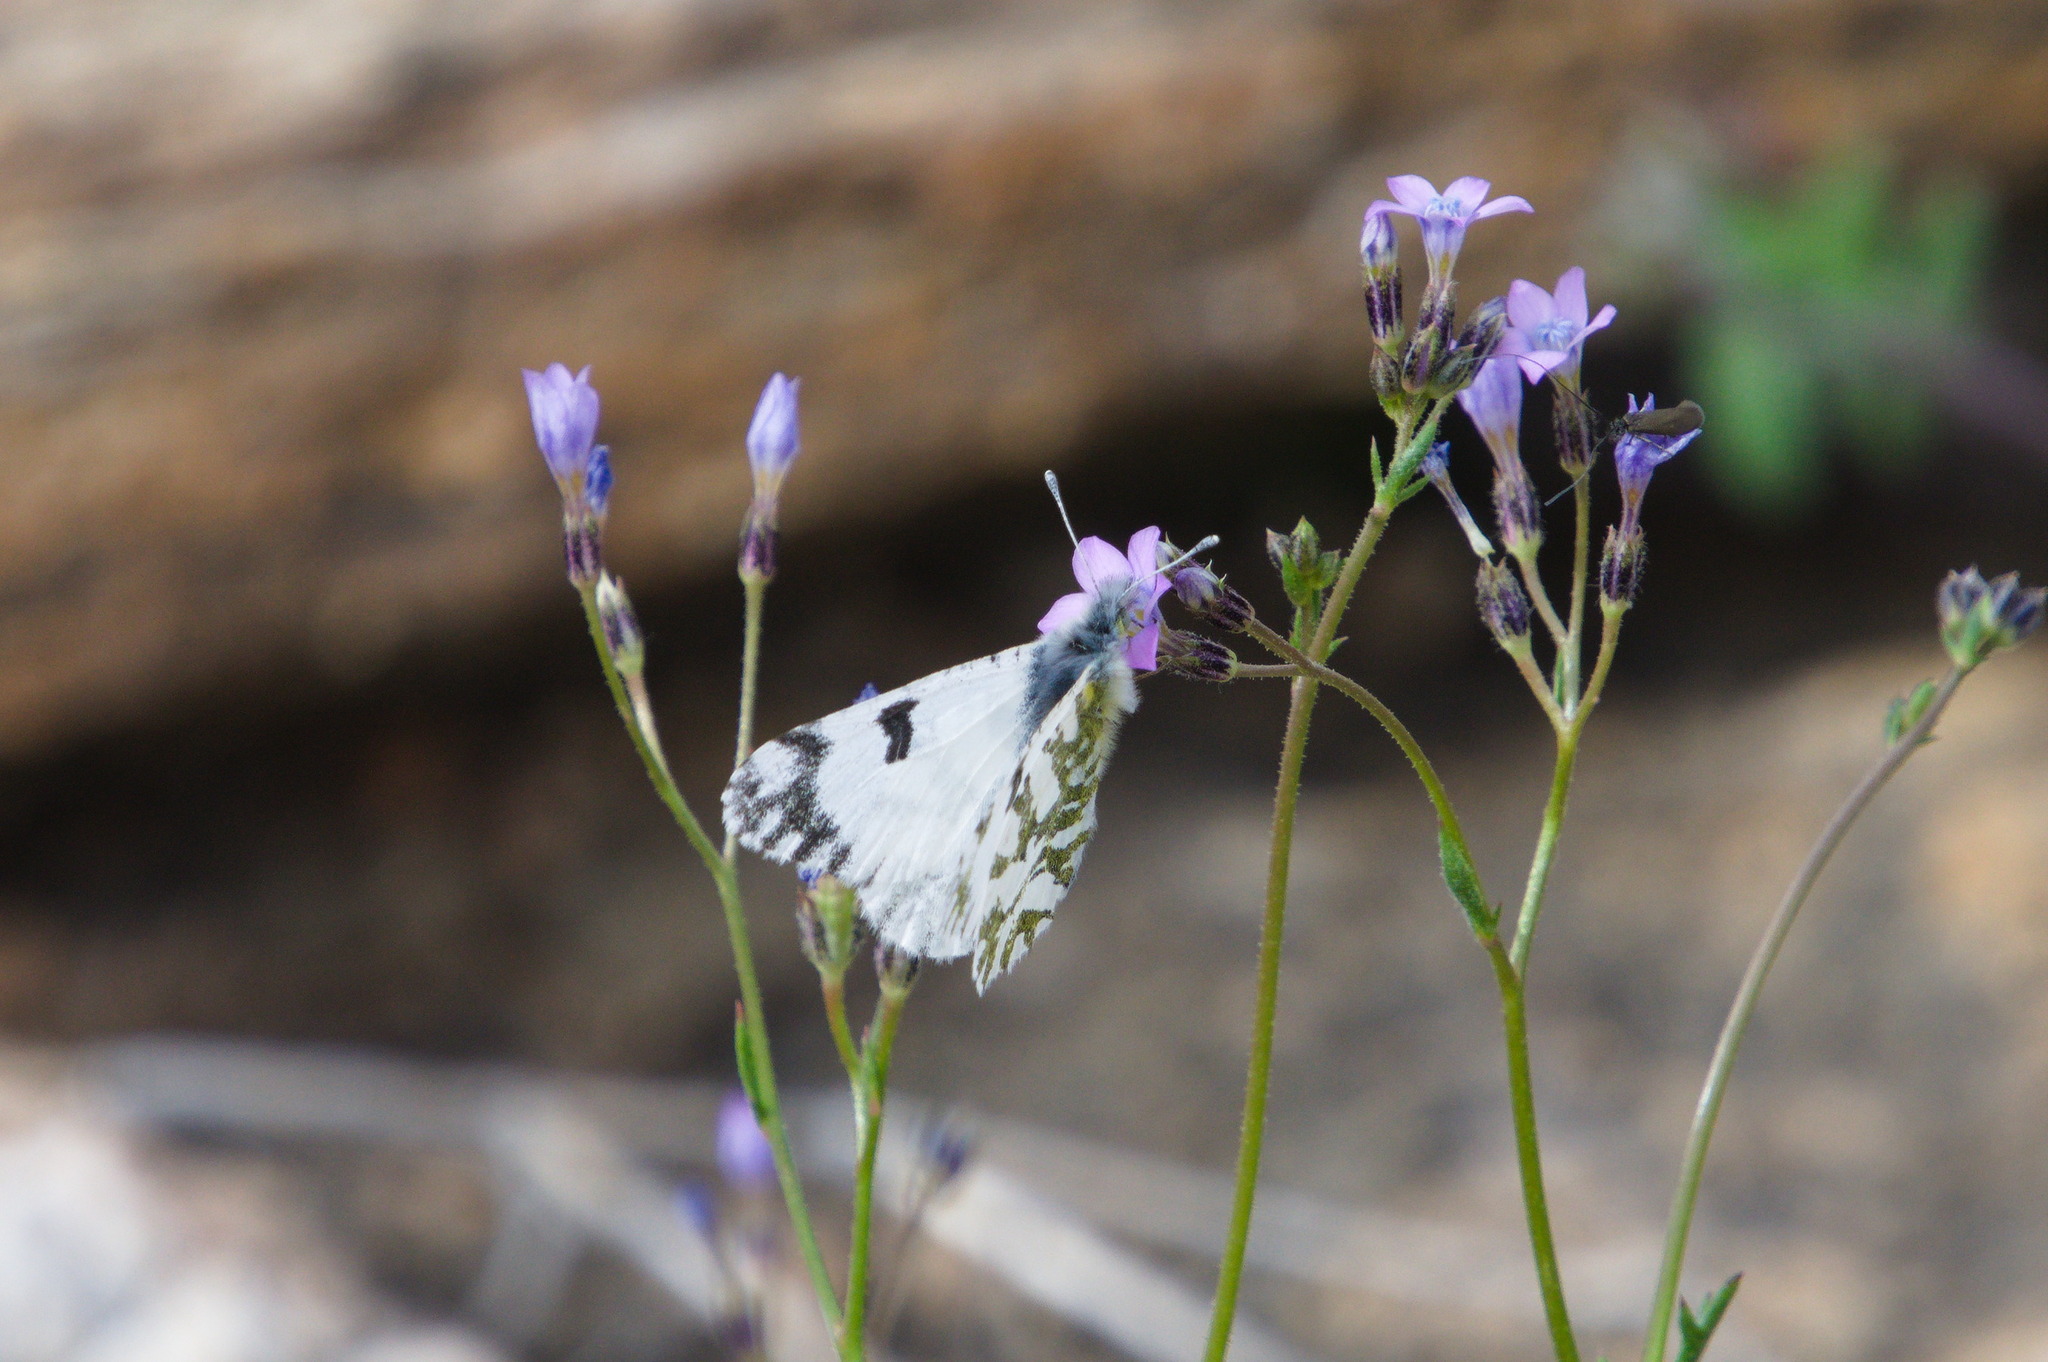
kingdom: Animalia
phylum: Arthropoda
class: Insecta
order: Lepidoptera
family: Pieridae
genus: Euchloe
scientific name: Euchloe lotta
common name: Desert marble
